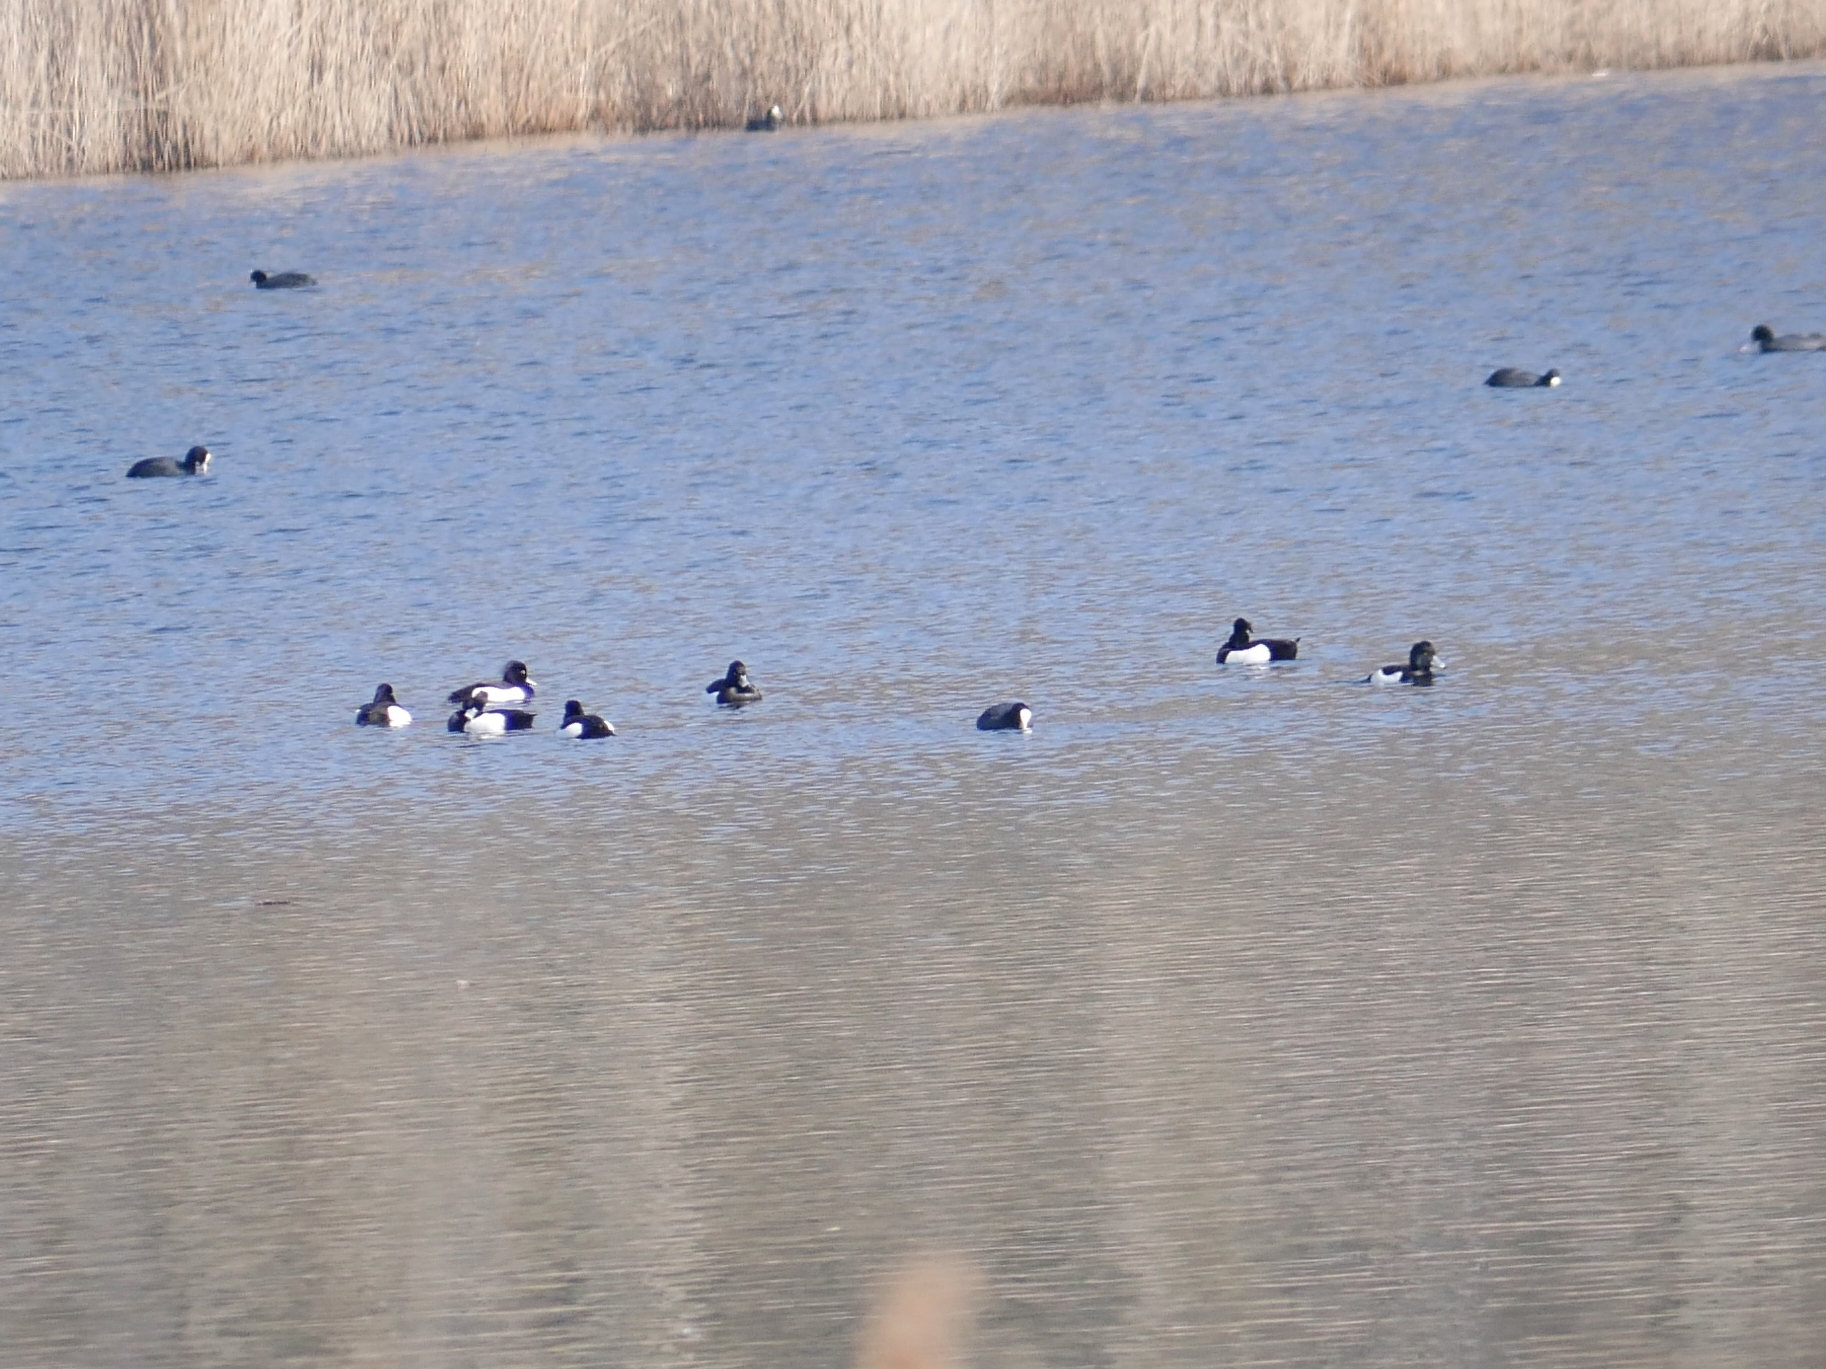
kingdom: Animalia
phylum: Chordata
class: Aves
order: Anseriformes
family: Anatidae
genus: Aythya
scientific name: Aythya fuligula
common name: Tufted duck
